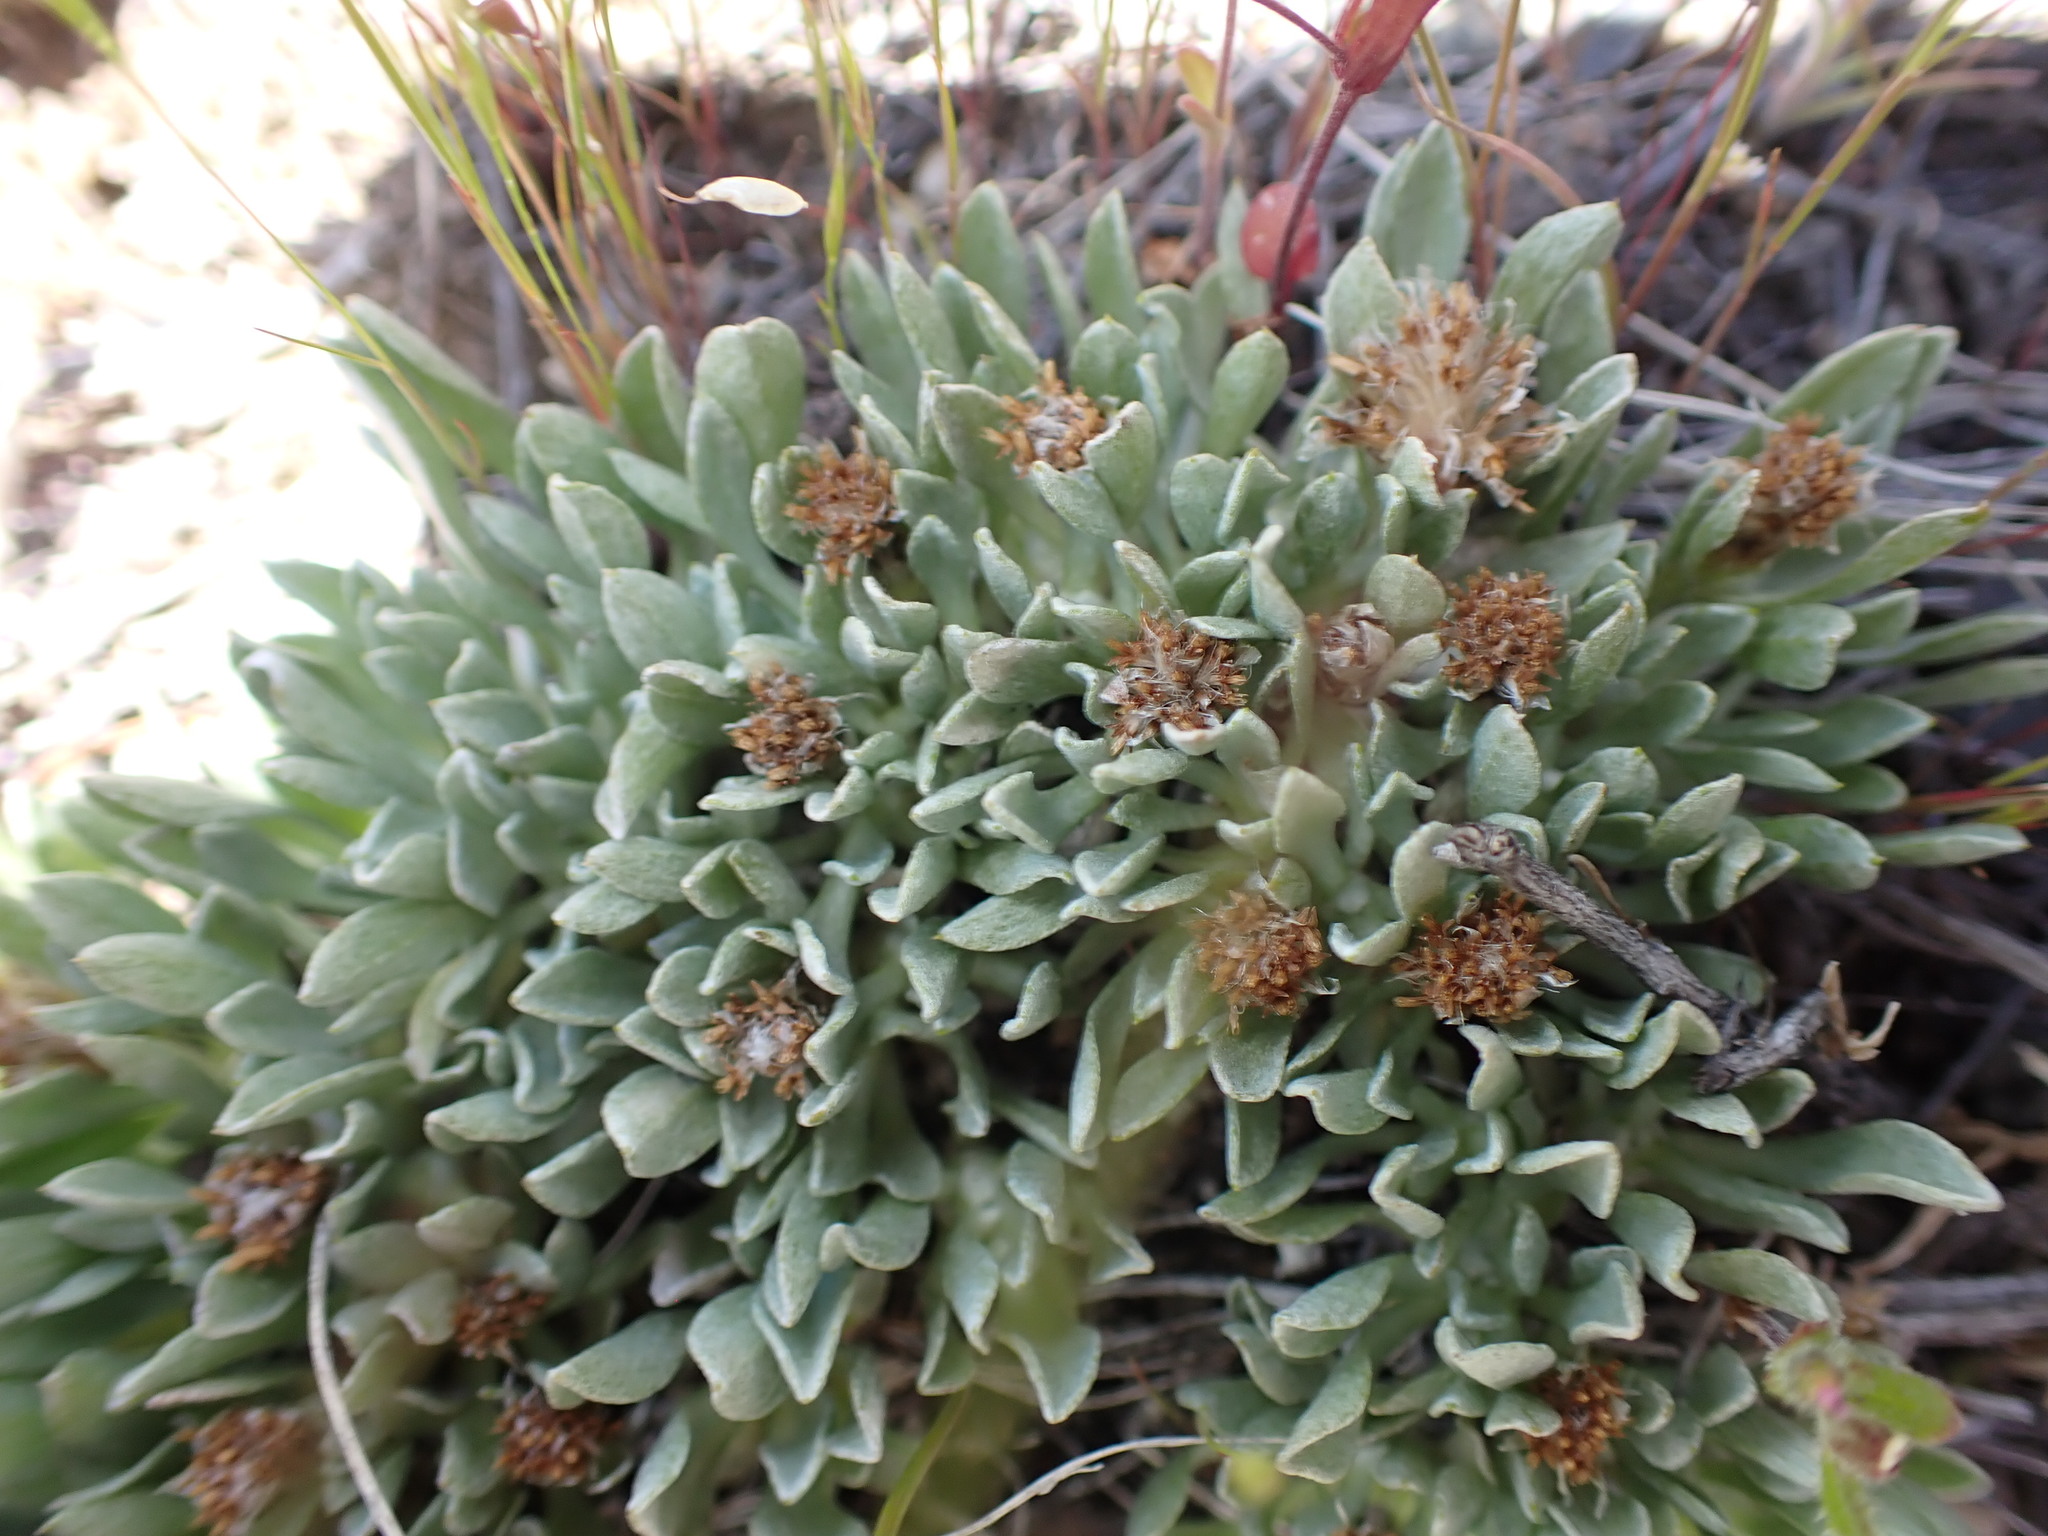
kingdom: Plantae
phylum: Tracheophyta
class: Magnoliopsida
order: Asterales
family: Asteraceae
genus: Antennaria
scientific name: Antennaria dimorpha
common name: Cushion pussytoes
